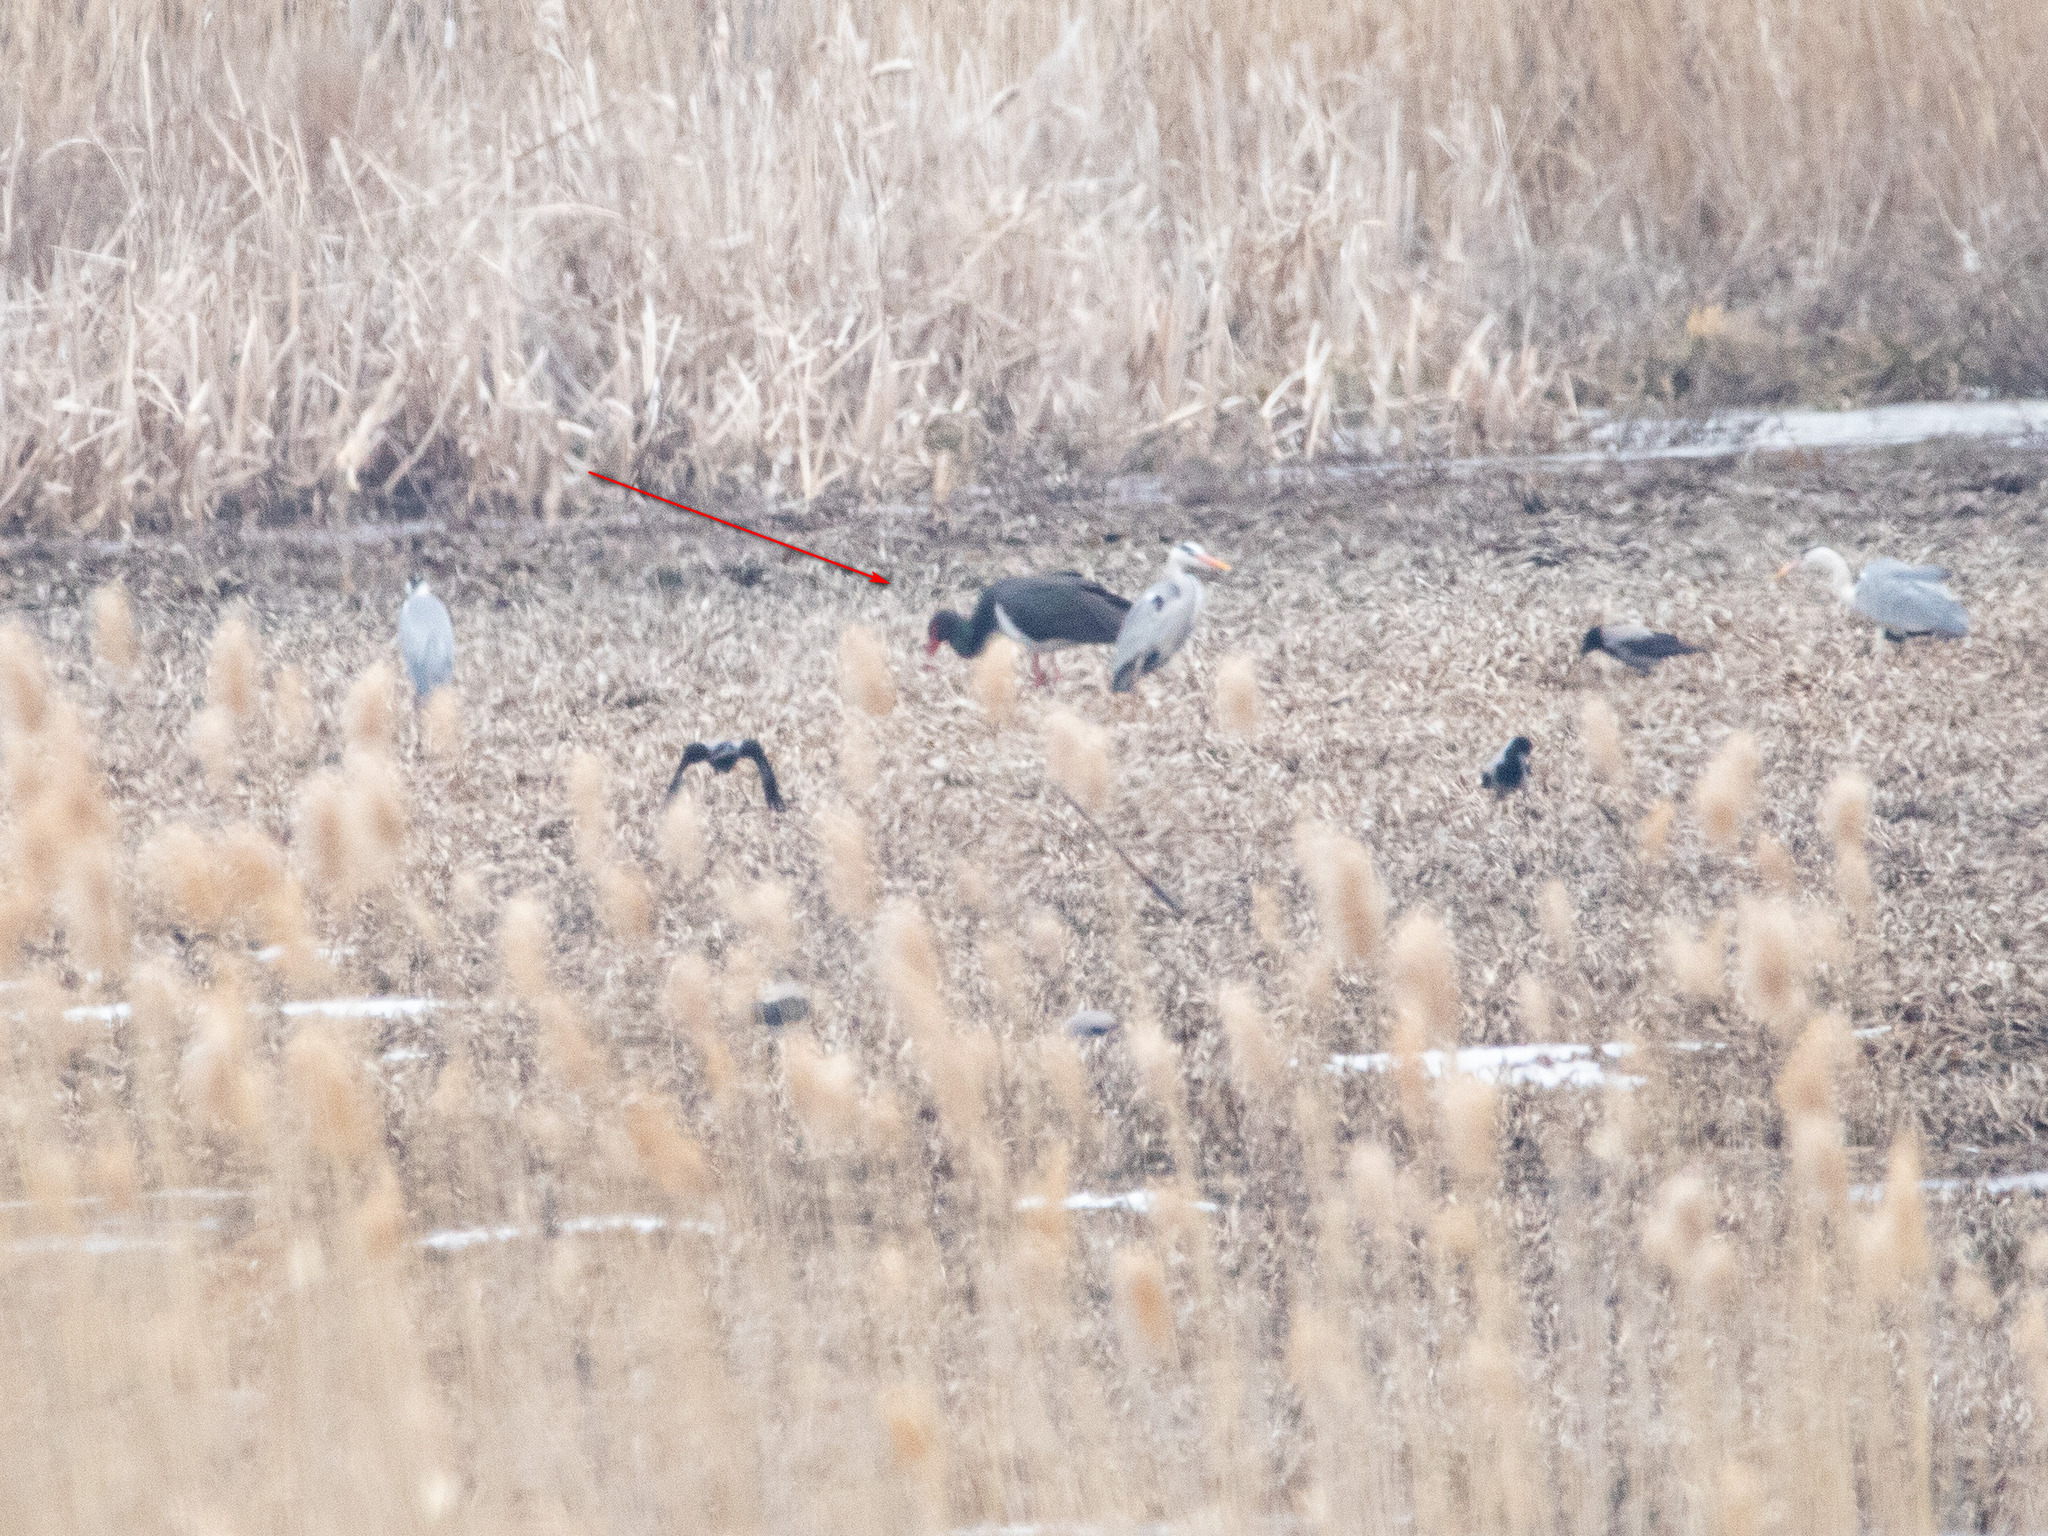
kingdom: Animalia
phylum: Chordata
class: Aves
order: Ciconiiformes
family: Ciconiidae
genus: Ciconia
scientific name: Ciconia nigra
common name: Black stork
